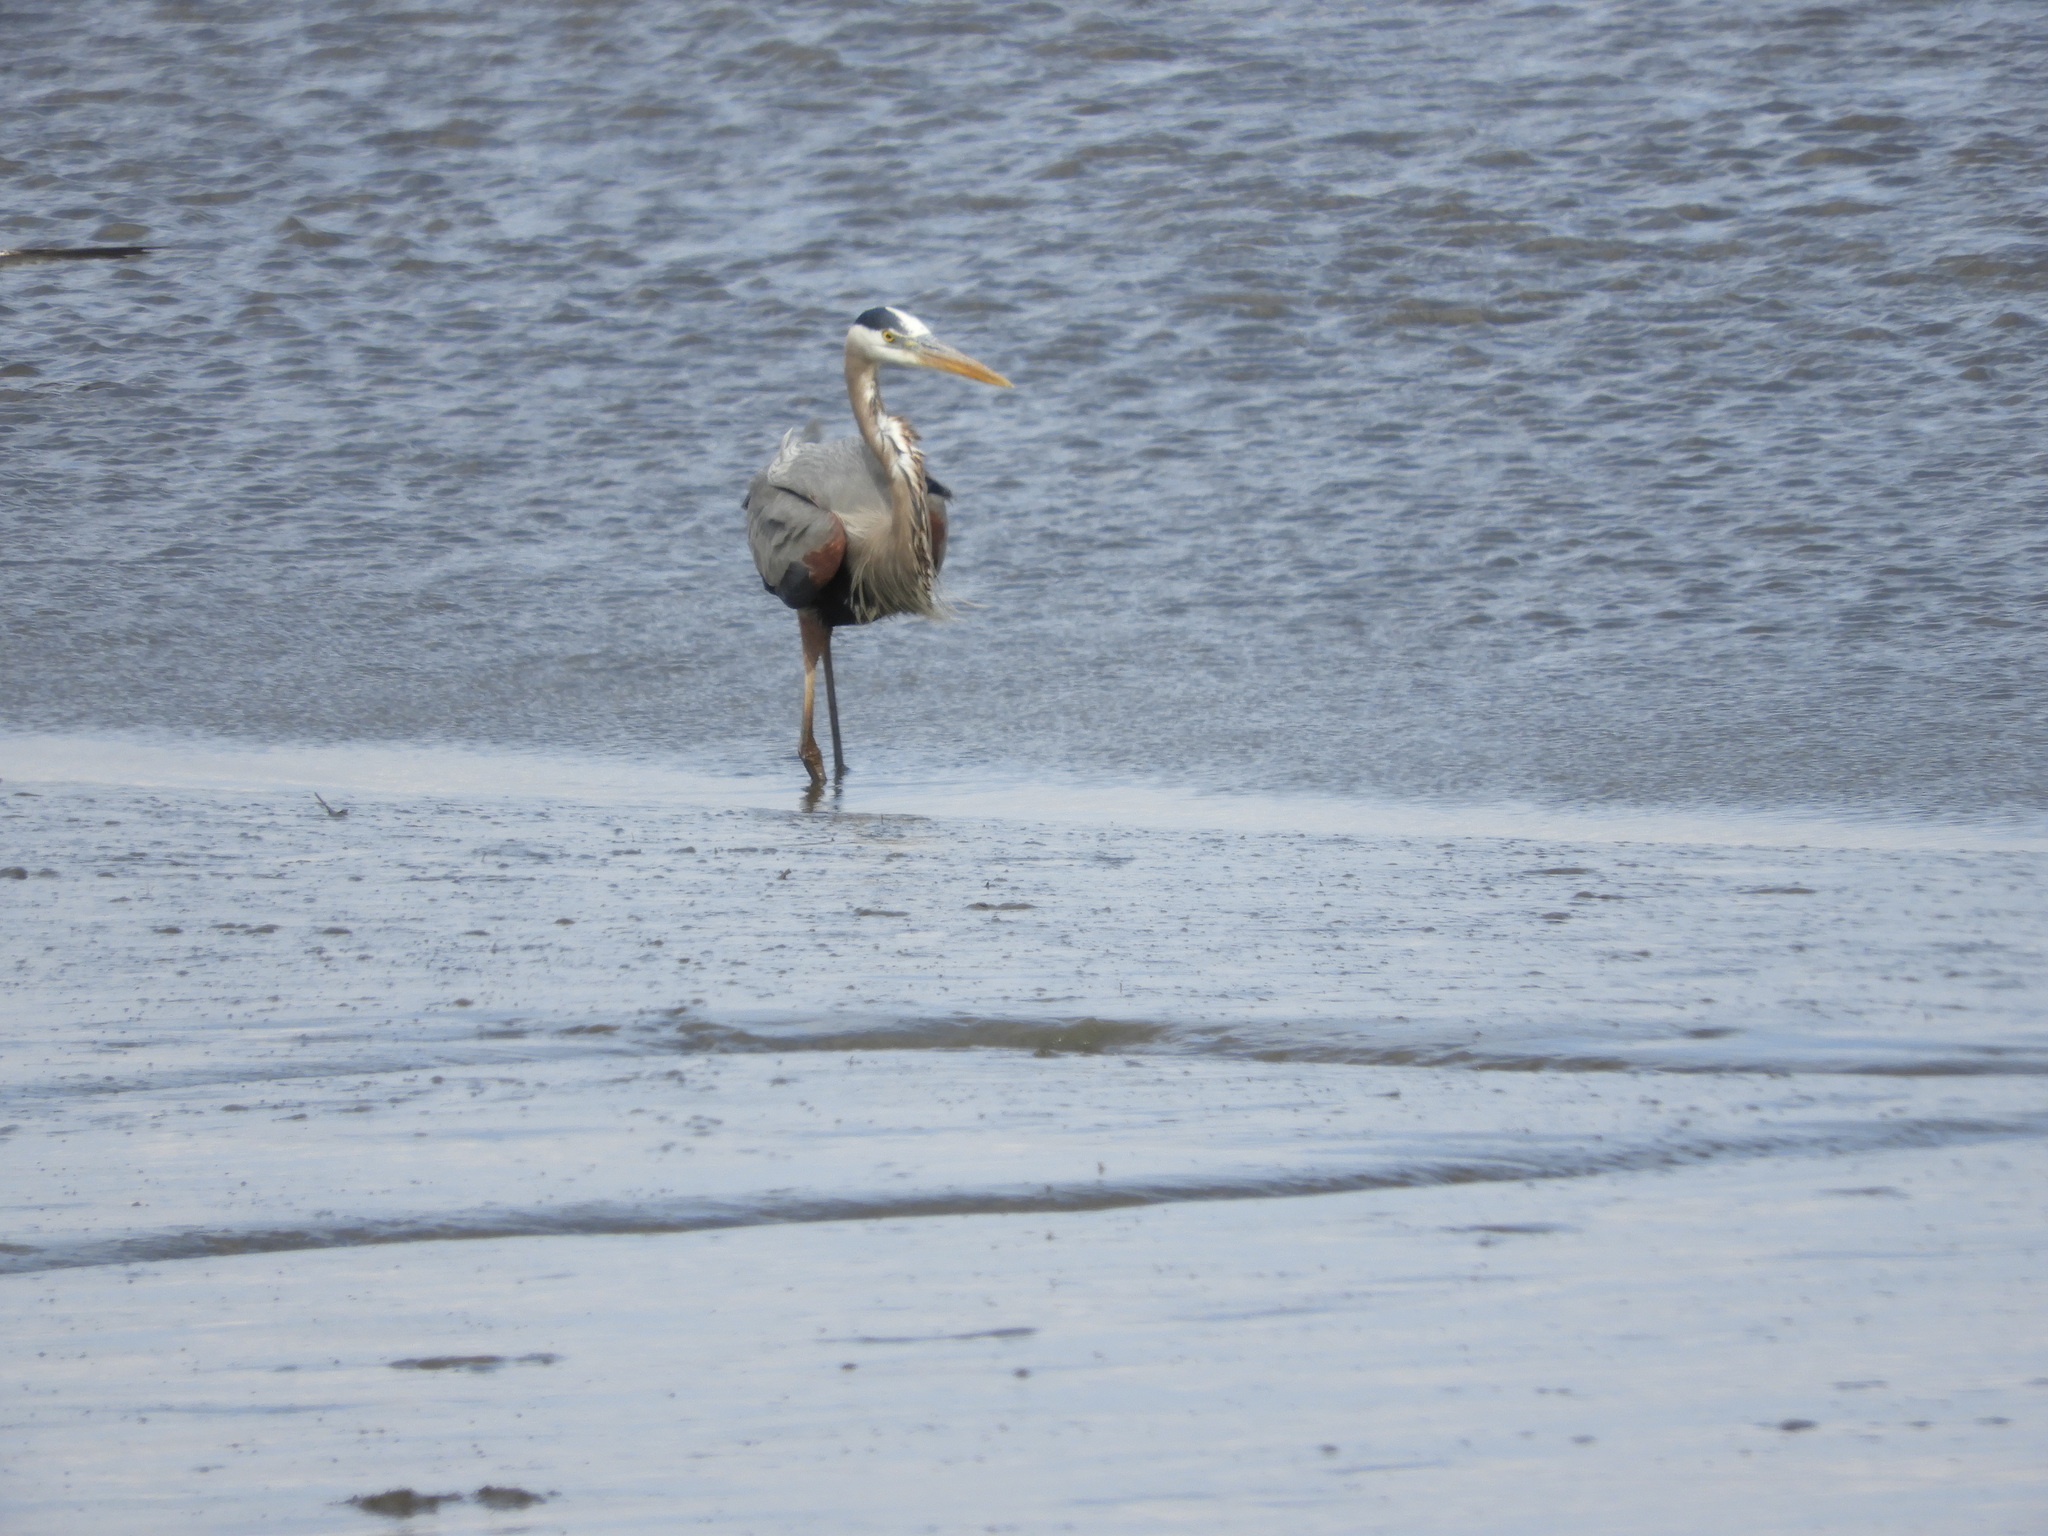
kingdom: Animalia
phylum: Chordata
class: Aves
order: Pelecaniformes
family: Ardeidae
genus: Ardea
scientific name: Ardea herodias
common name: Great blue heron
